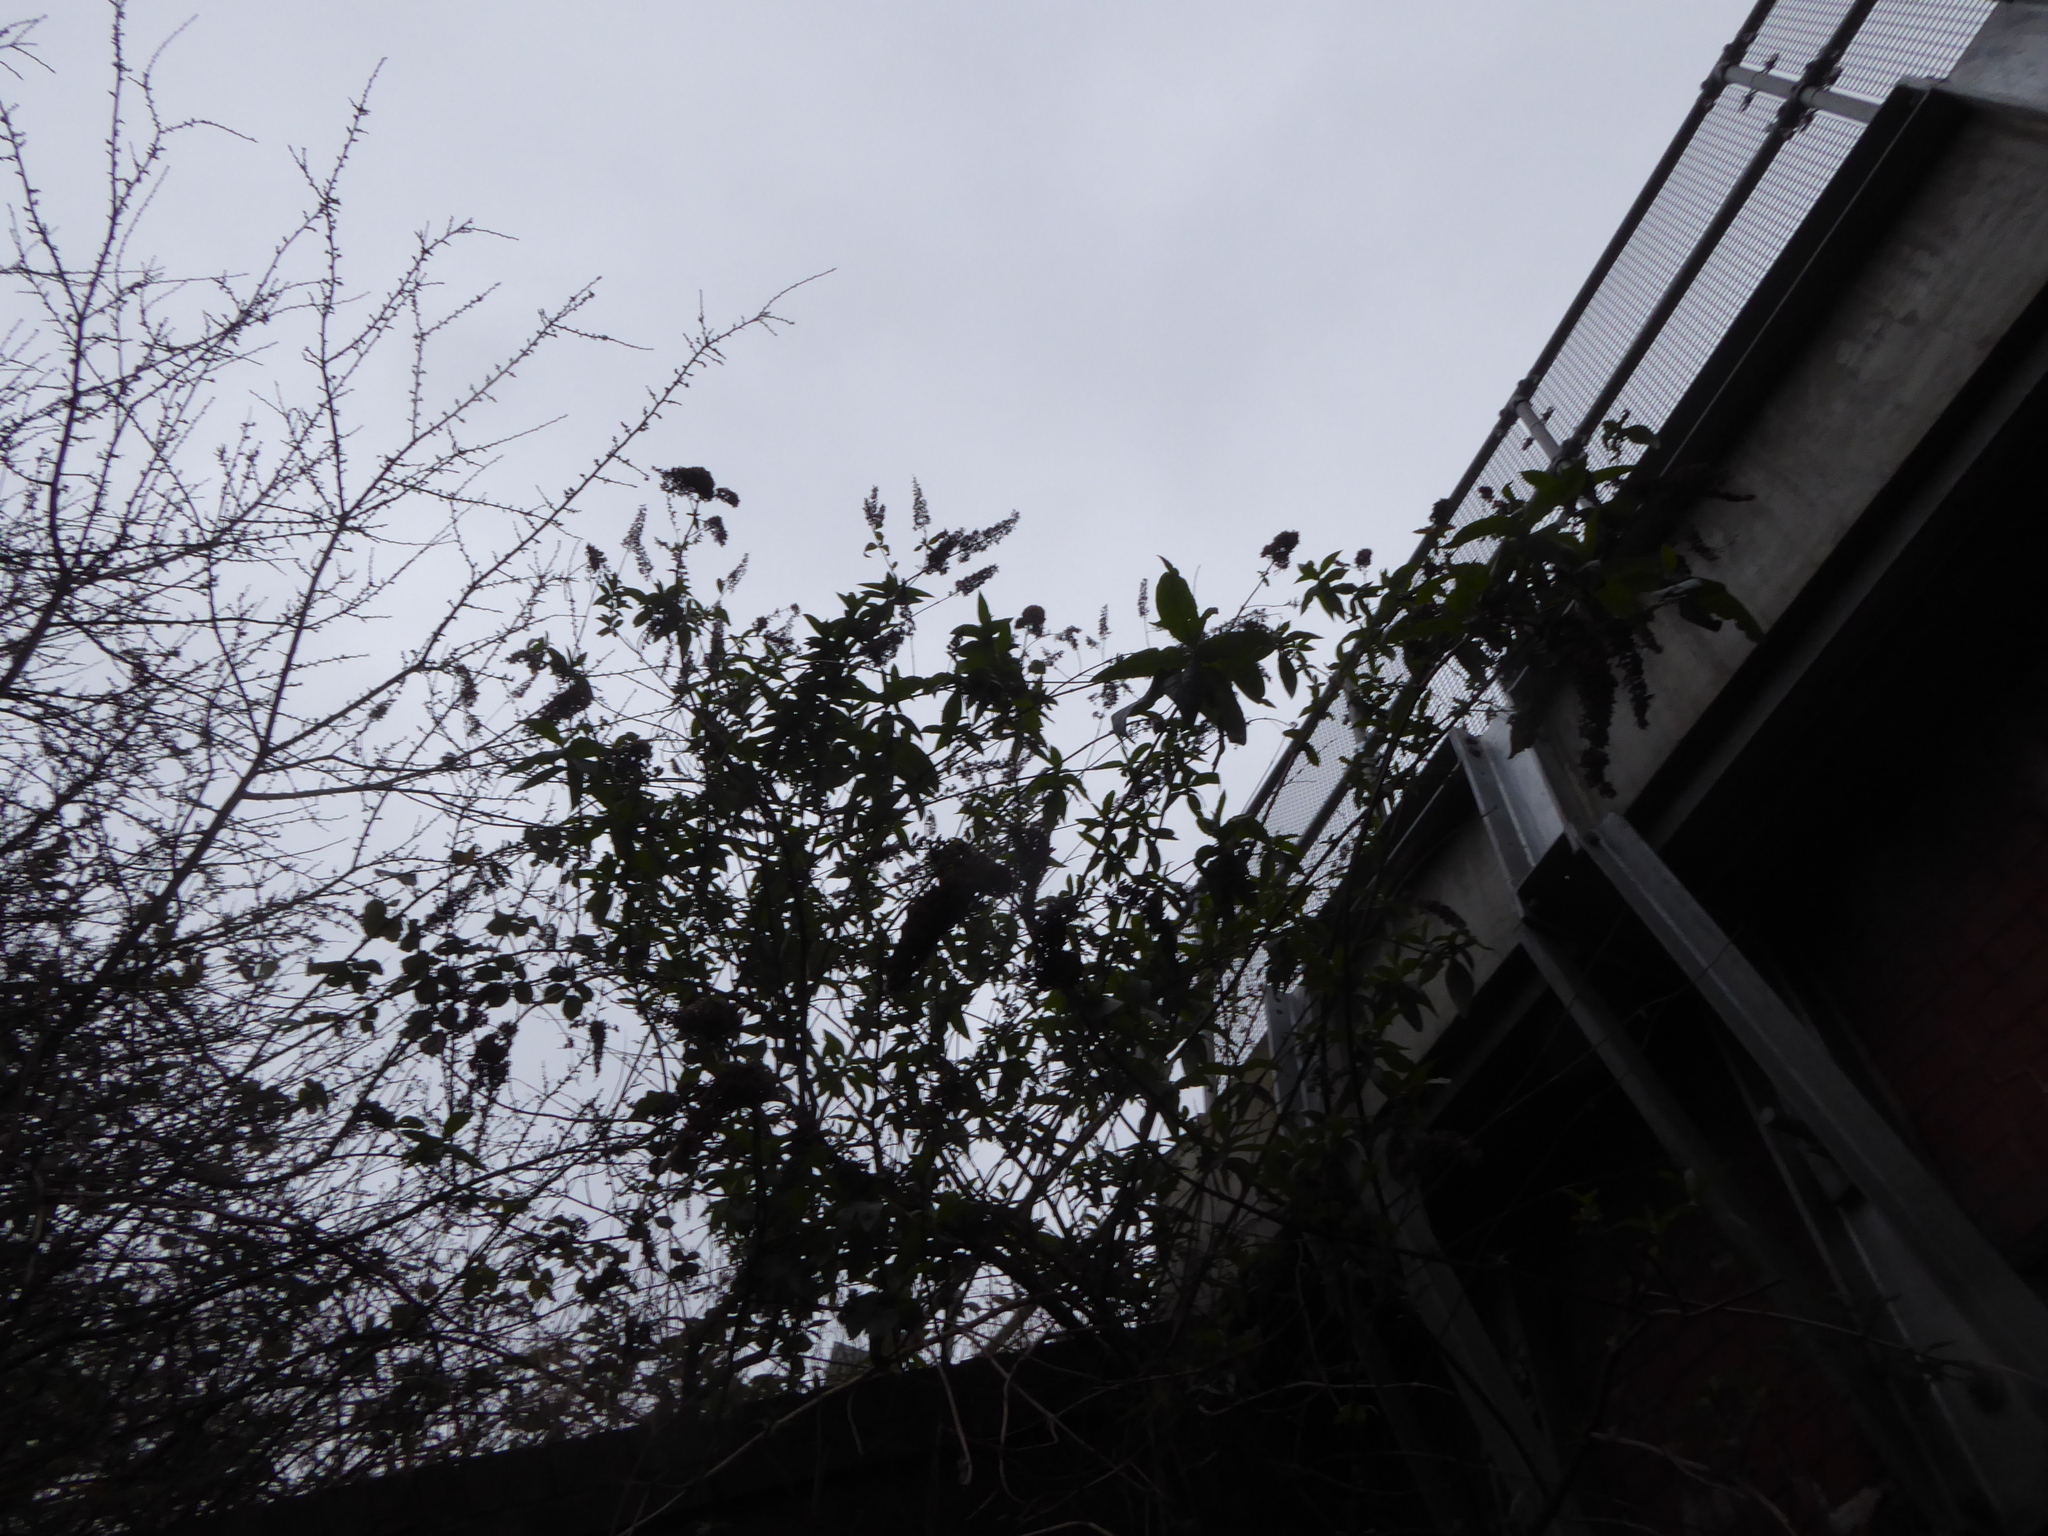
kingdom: Plantae
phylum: Tracheophyta
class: Magnoliopsida
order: Lamiales
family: Scrophulariaceae
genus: Buddleja
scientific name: Buddleja davidii
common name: Butterfly-bush
